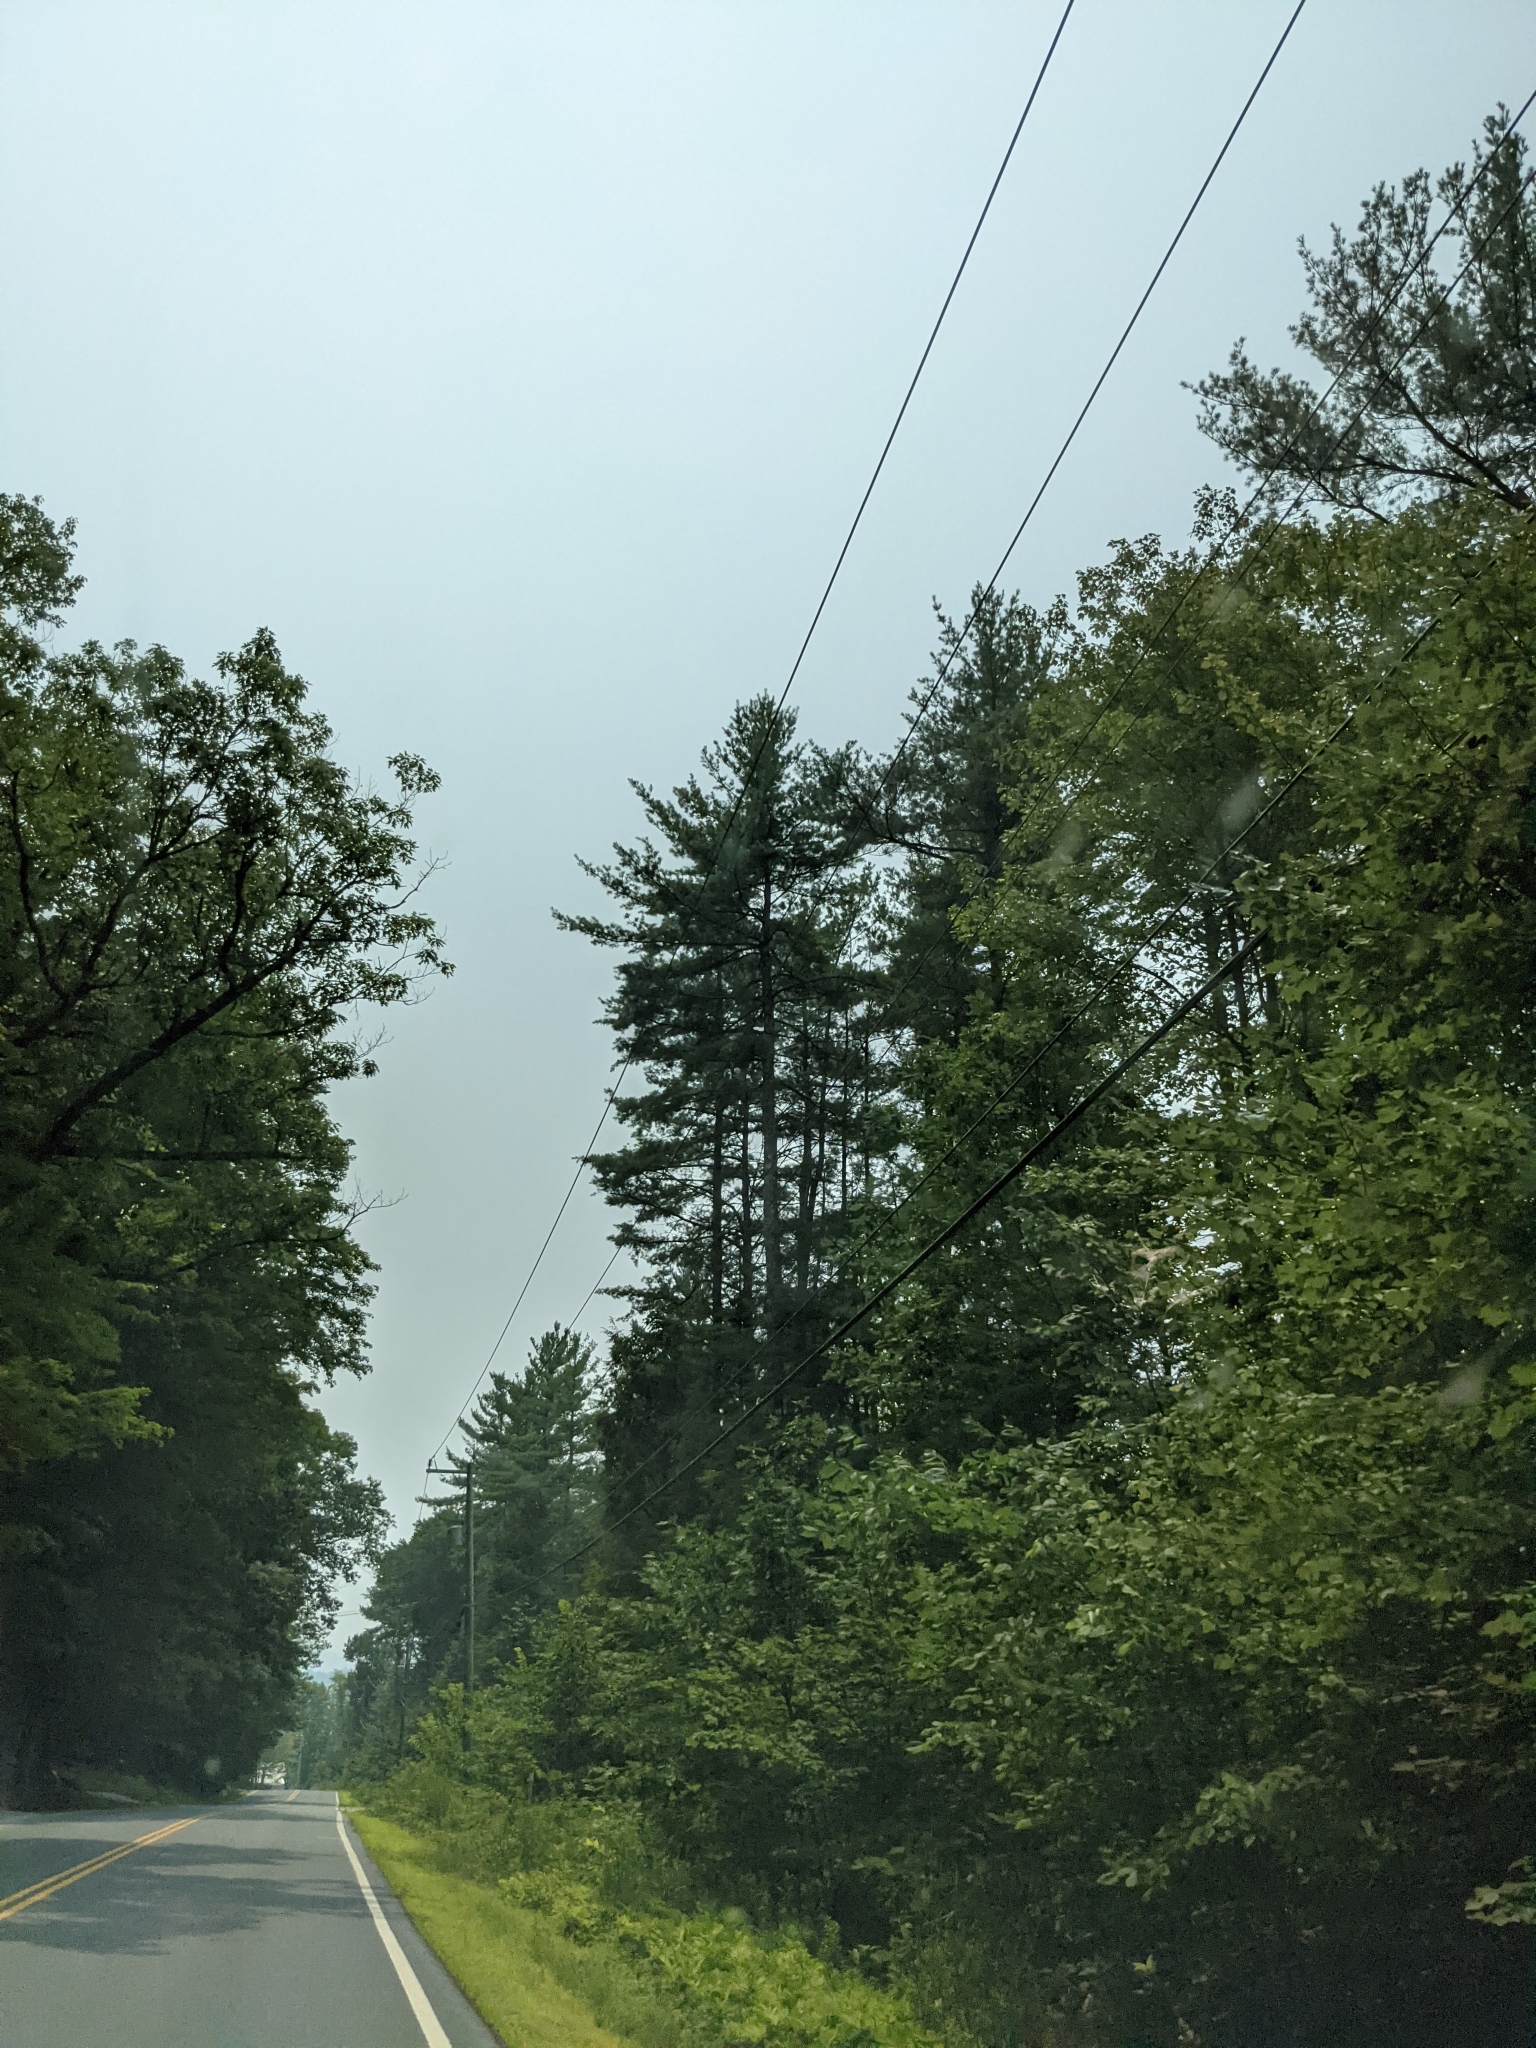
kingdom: Plantae
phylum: Tracheophyta
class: Pinopsida
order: Pinales
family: Pinaceae
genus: Pinus
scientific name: Pinus strobus
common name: Weymouth pine
